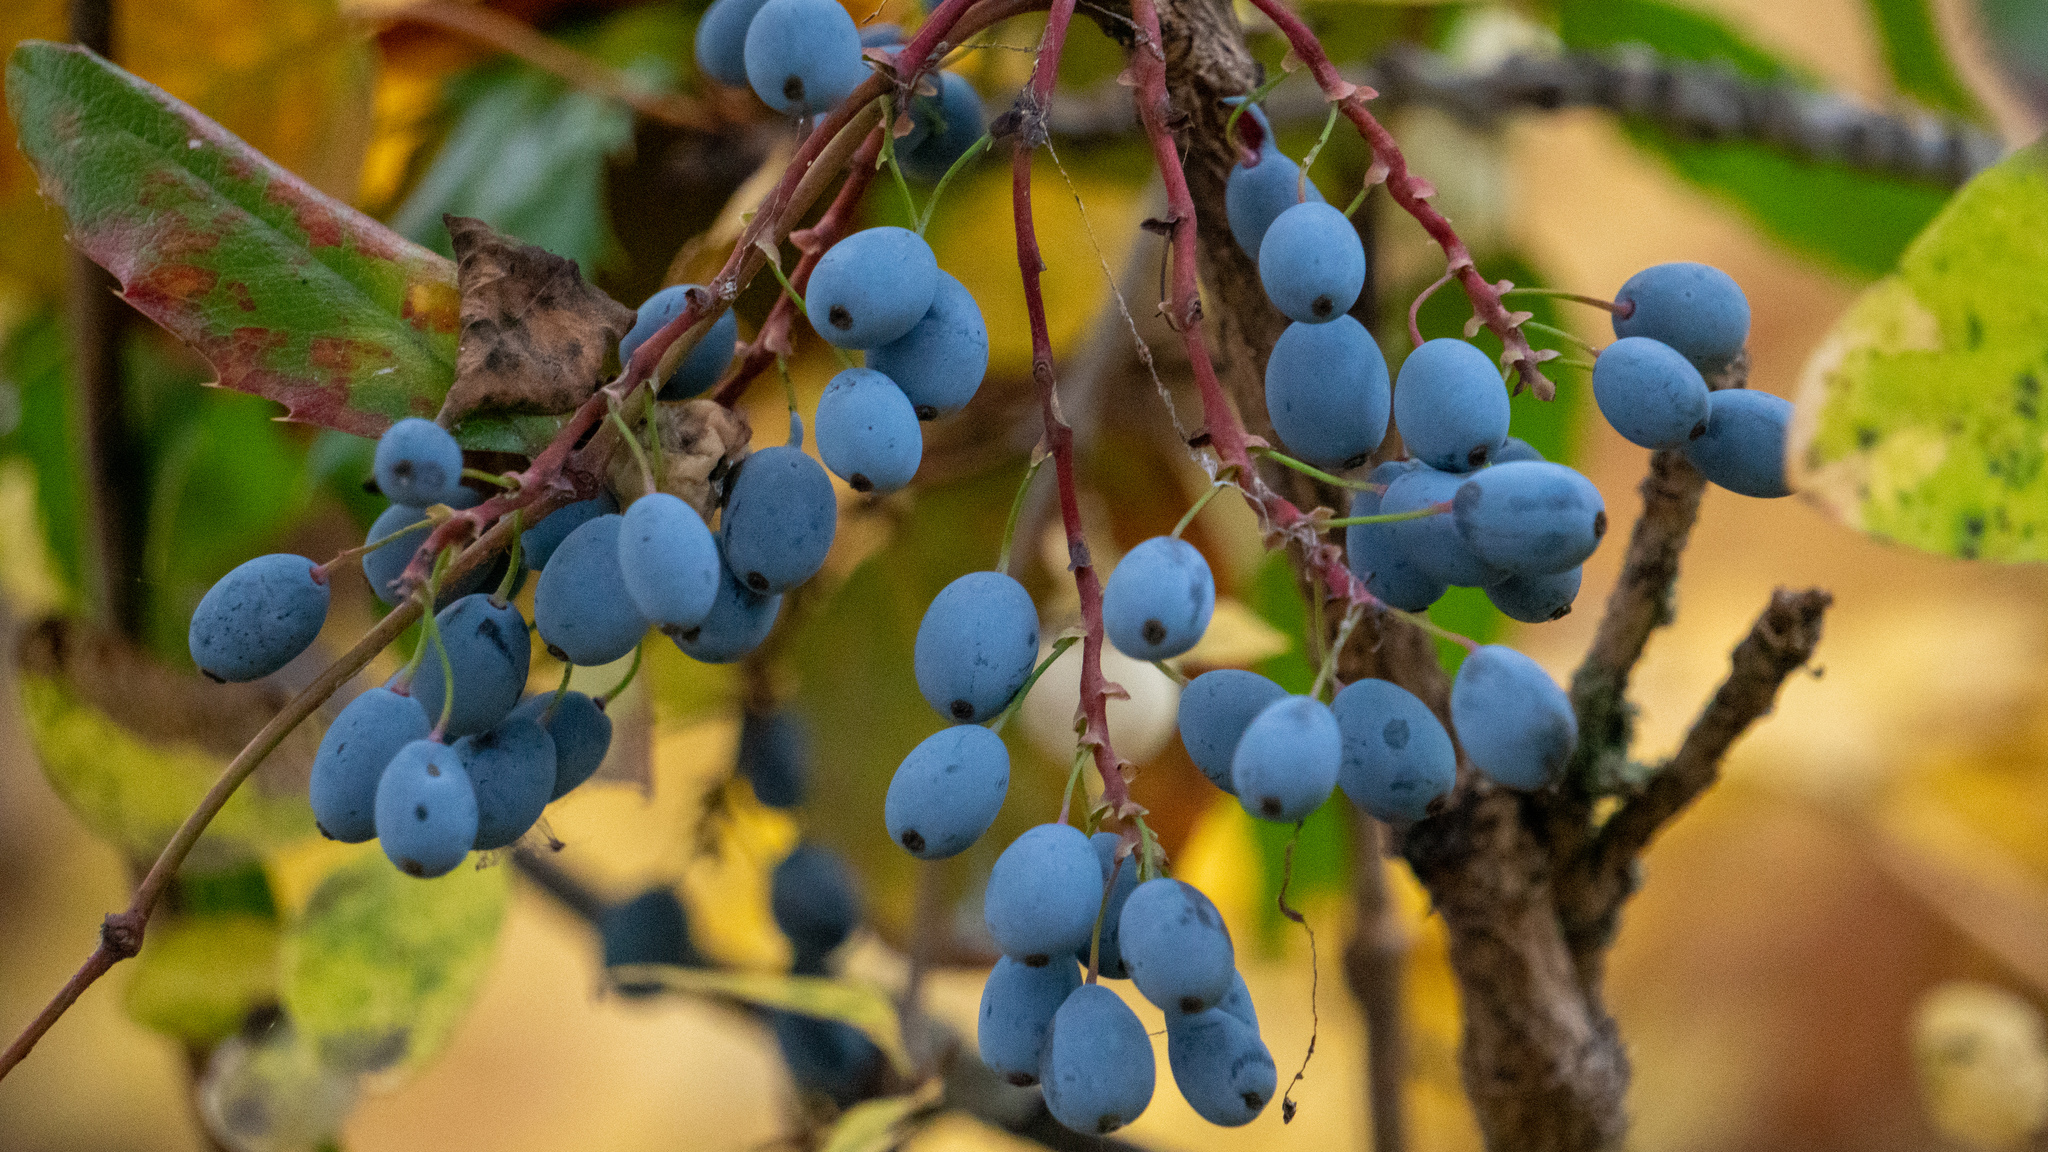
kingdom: Plantae
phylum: Tracheophyta
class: Magnoliopsida
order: Ranunculales
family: Berberidaceae
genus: Mahonia
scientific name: Mahonia aquifolium
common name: Oregon-grape
